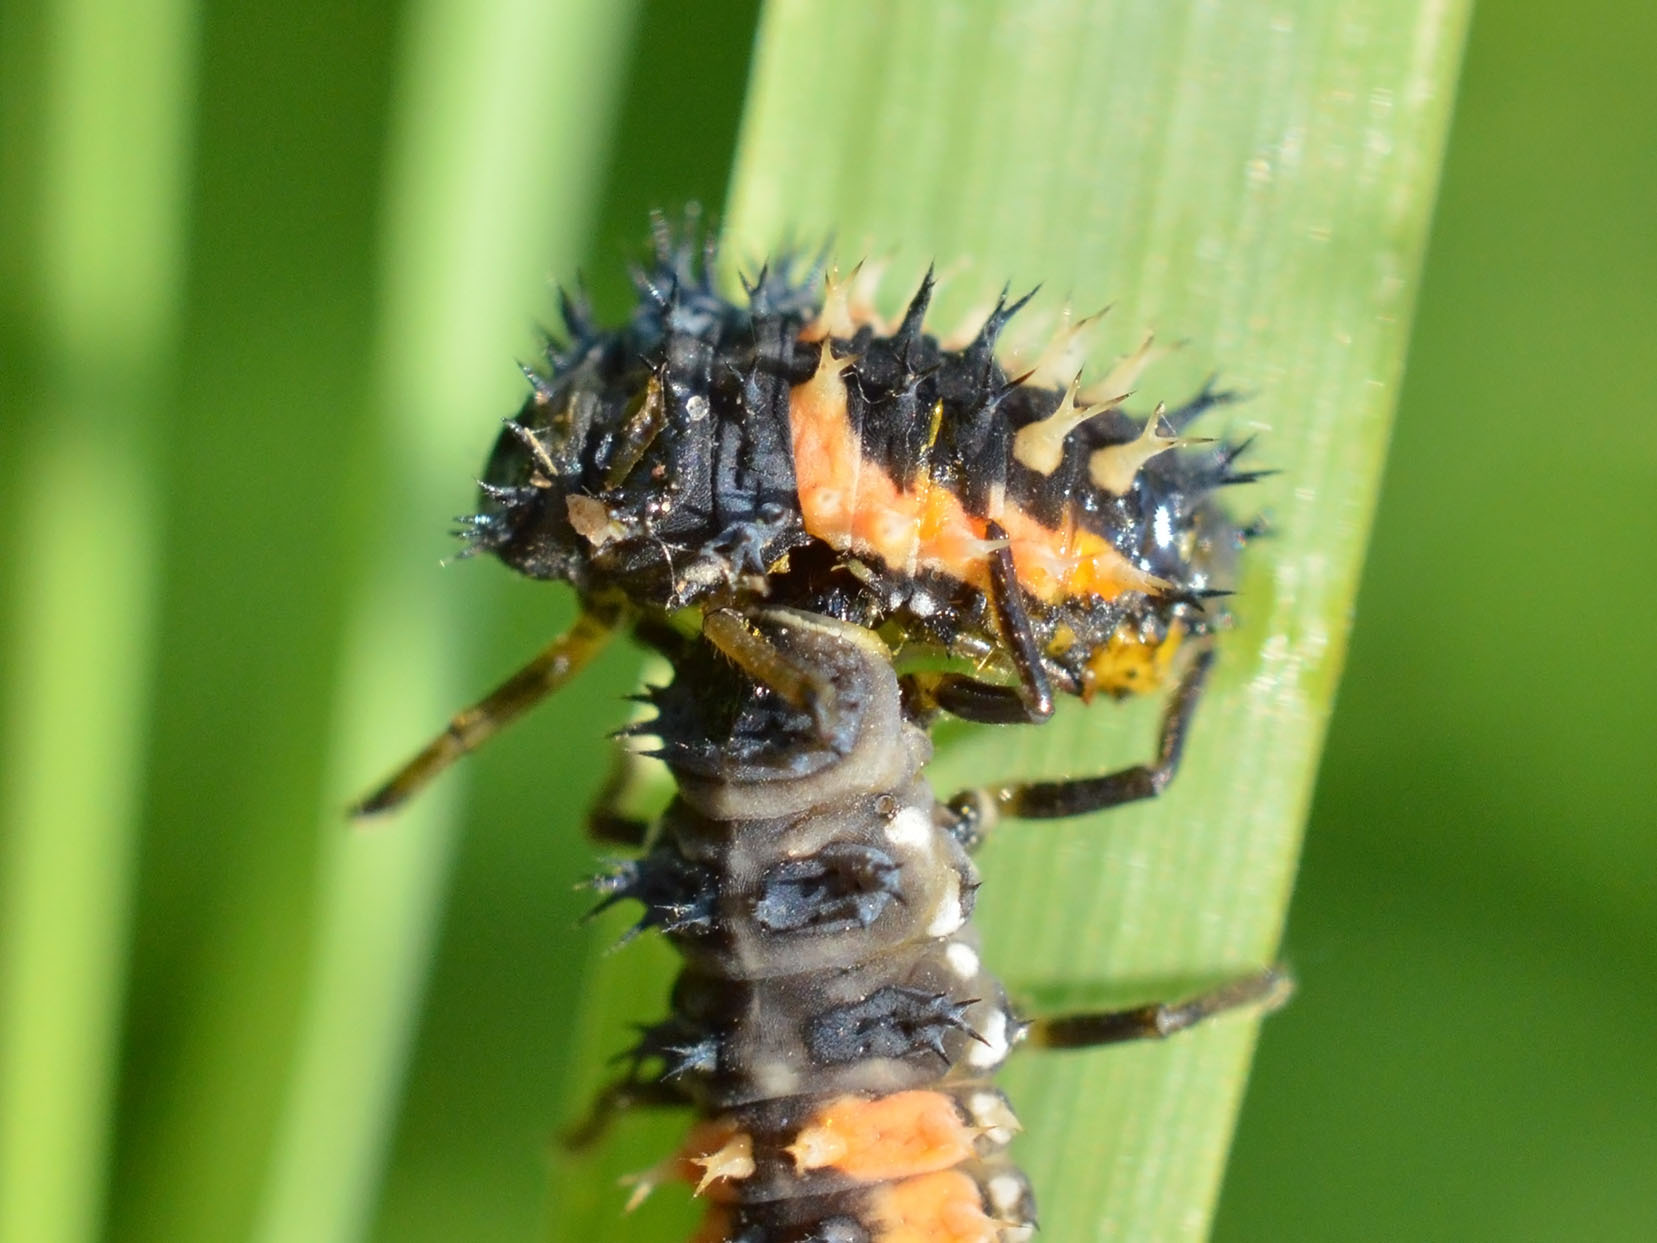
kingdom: Animalia
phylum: Arthropoda
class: Insecta
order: Coleoptera
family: Coccinellidae
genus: Harmonia
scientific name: Harmonia axyridis
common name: Harlequin ladybird
